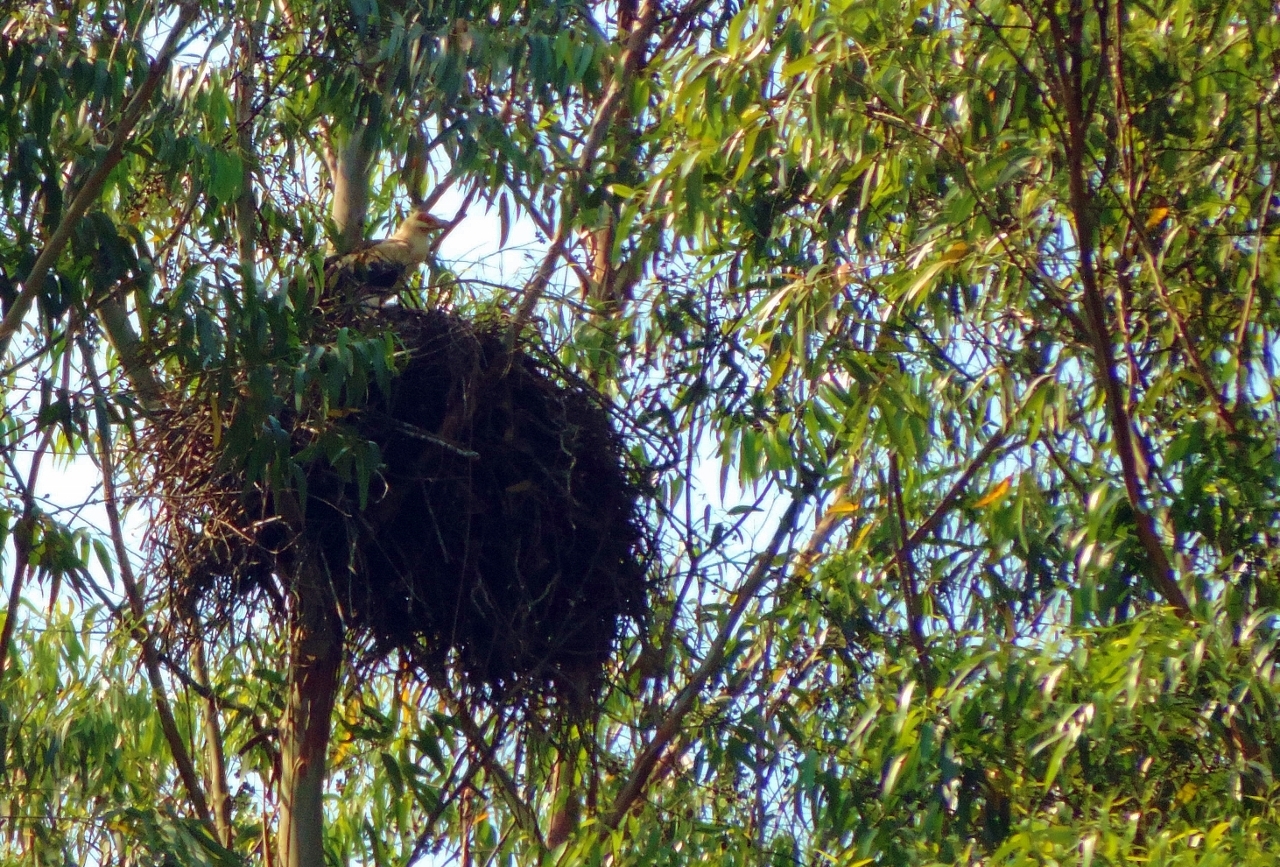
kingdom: Animalia
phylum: Chordata
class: Aves
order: Accipitriformes
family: Accipitridae
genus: Gypohierax
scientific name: Gypohierax angolensis
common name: Palm-nut vulture
